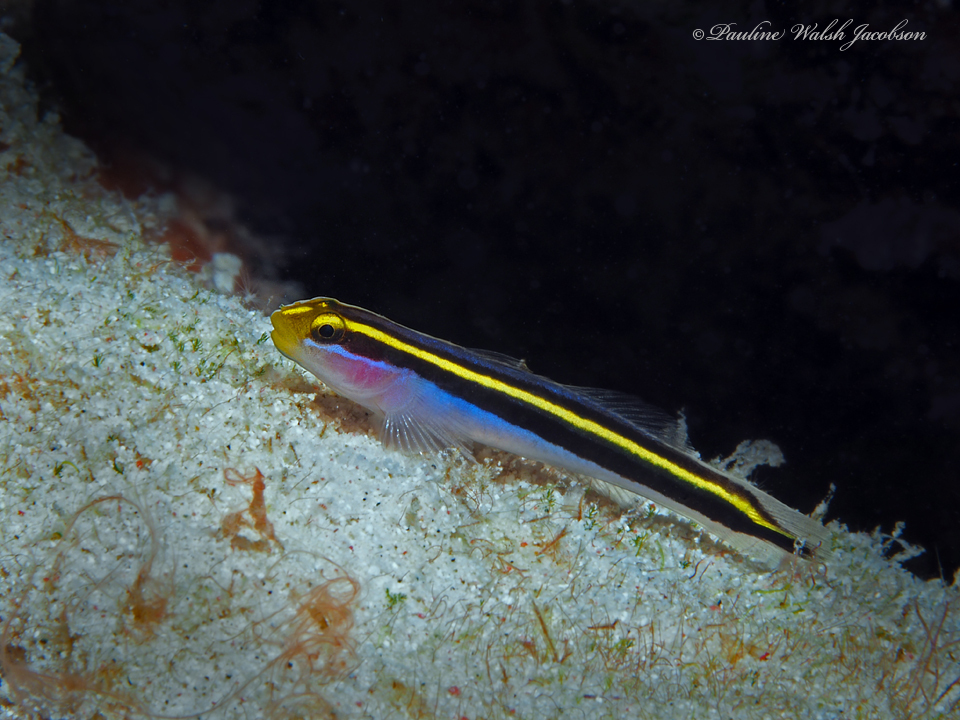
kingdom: Animalia
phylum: Chordata
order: Perciformes
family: Gobiidae
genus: Elacatinus
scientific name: Elacatinus randalli
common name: Yellownose goby
